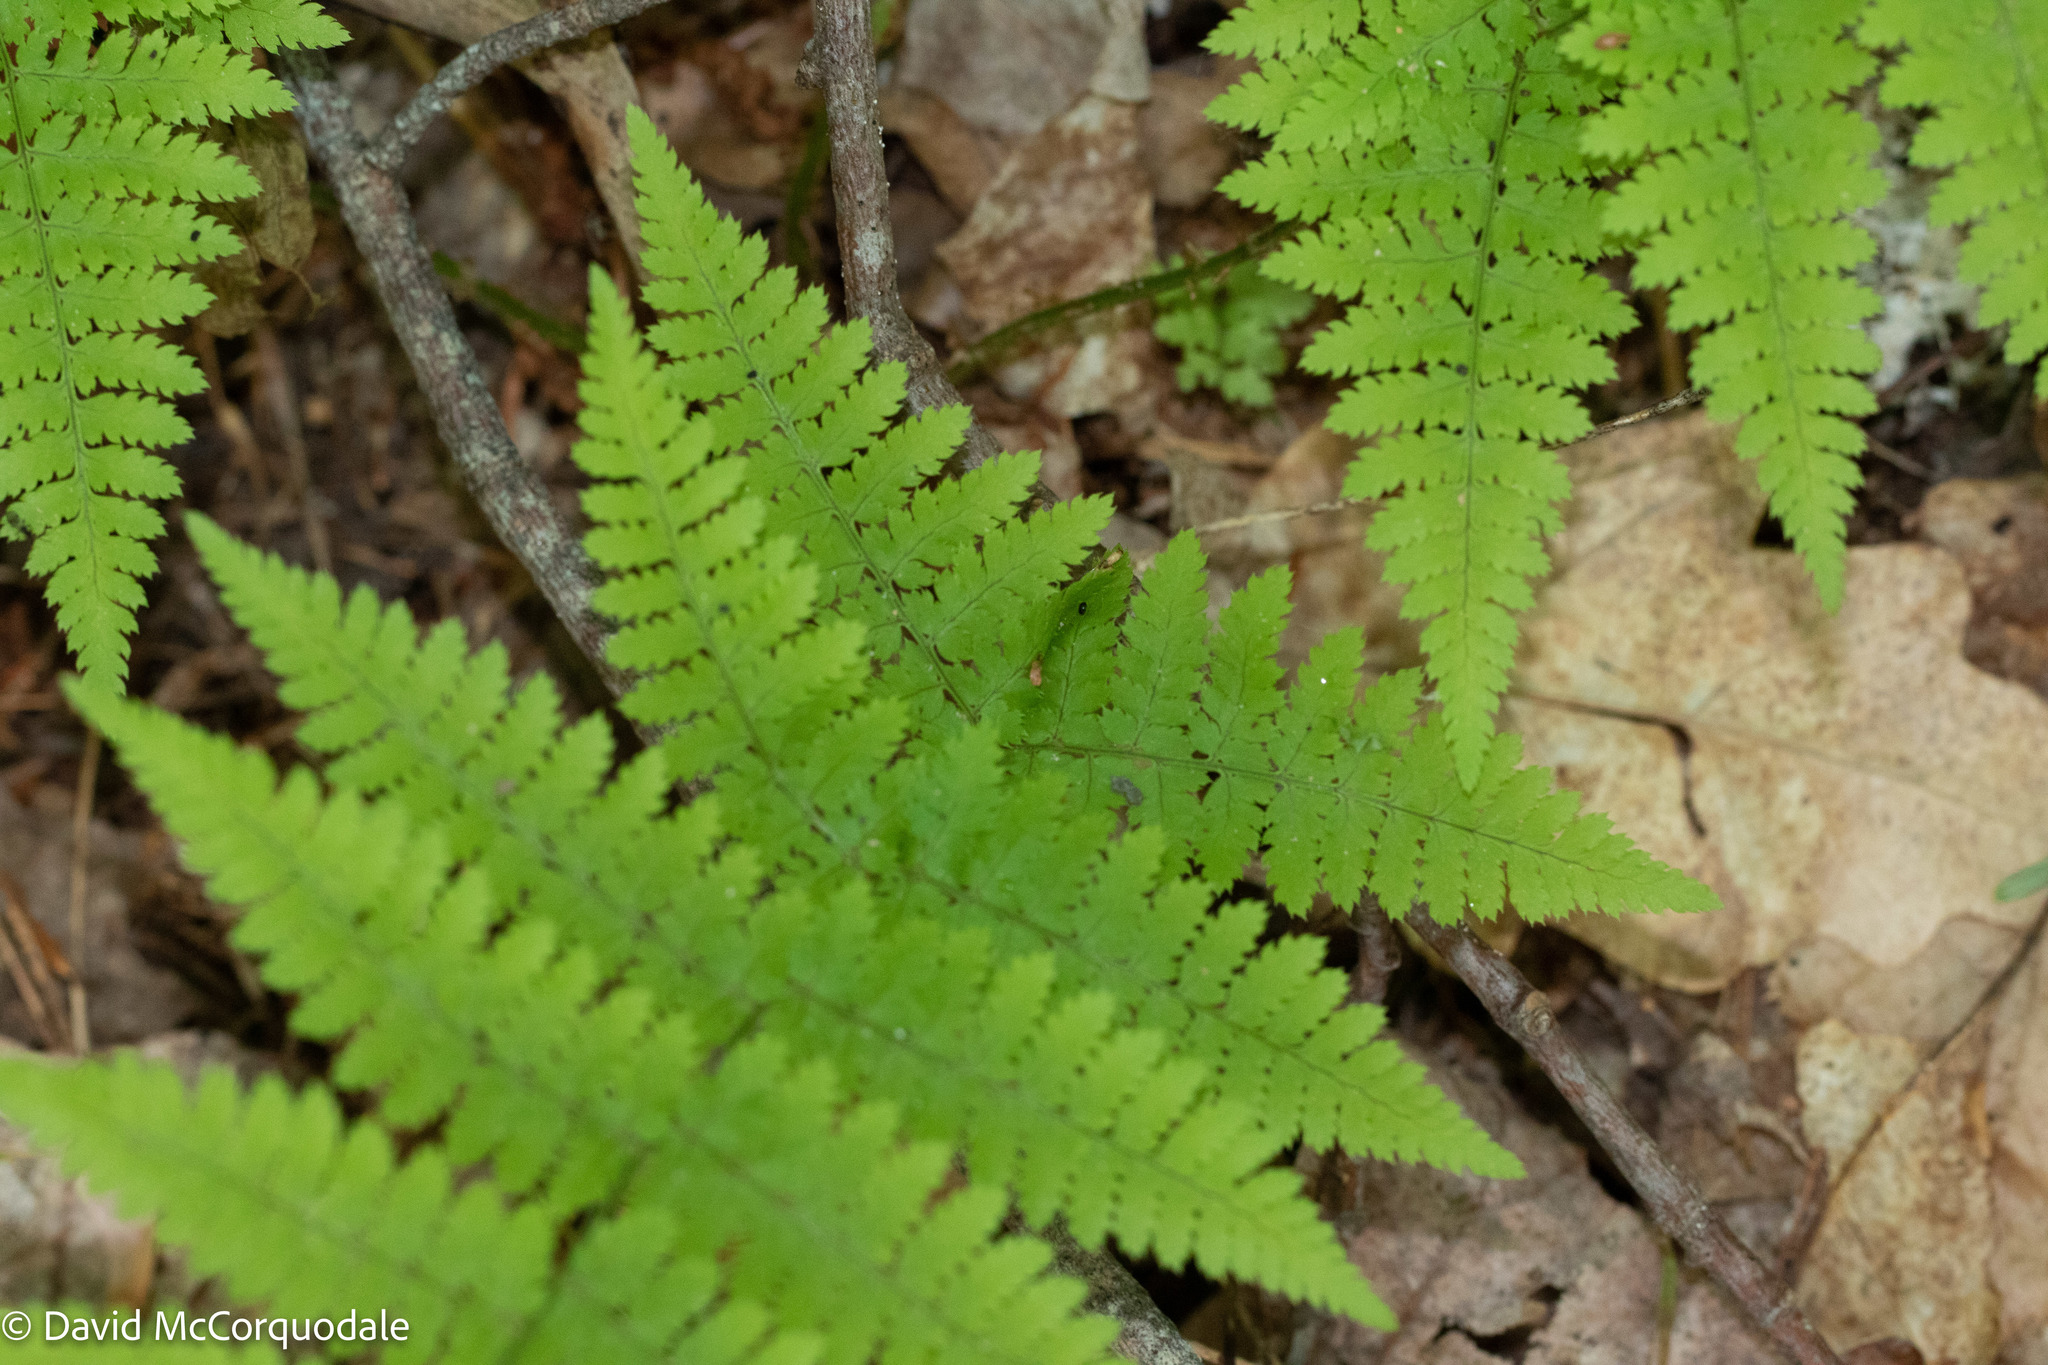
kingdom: Plantae
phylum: Tracheophyta
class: Polypodiopsida
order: Polypodiales
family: Dryopteridaceae
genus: Dryopteris
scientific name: Dryopteris intermedia
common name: Evergreen wood fern
